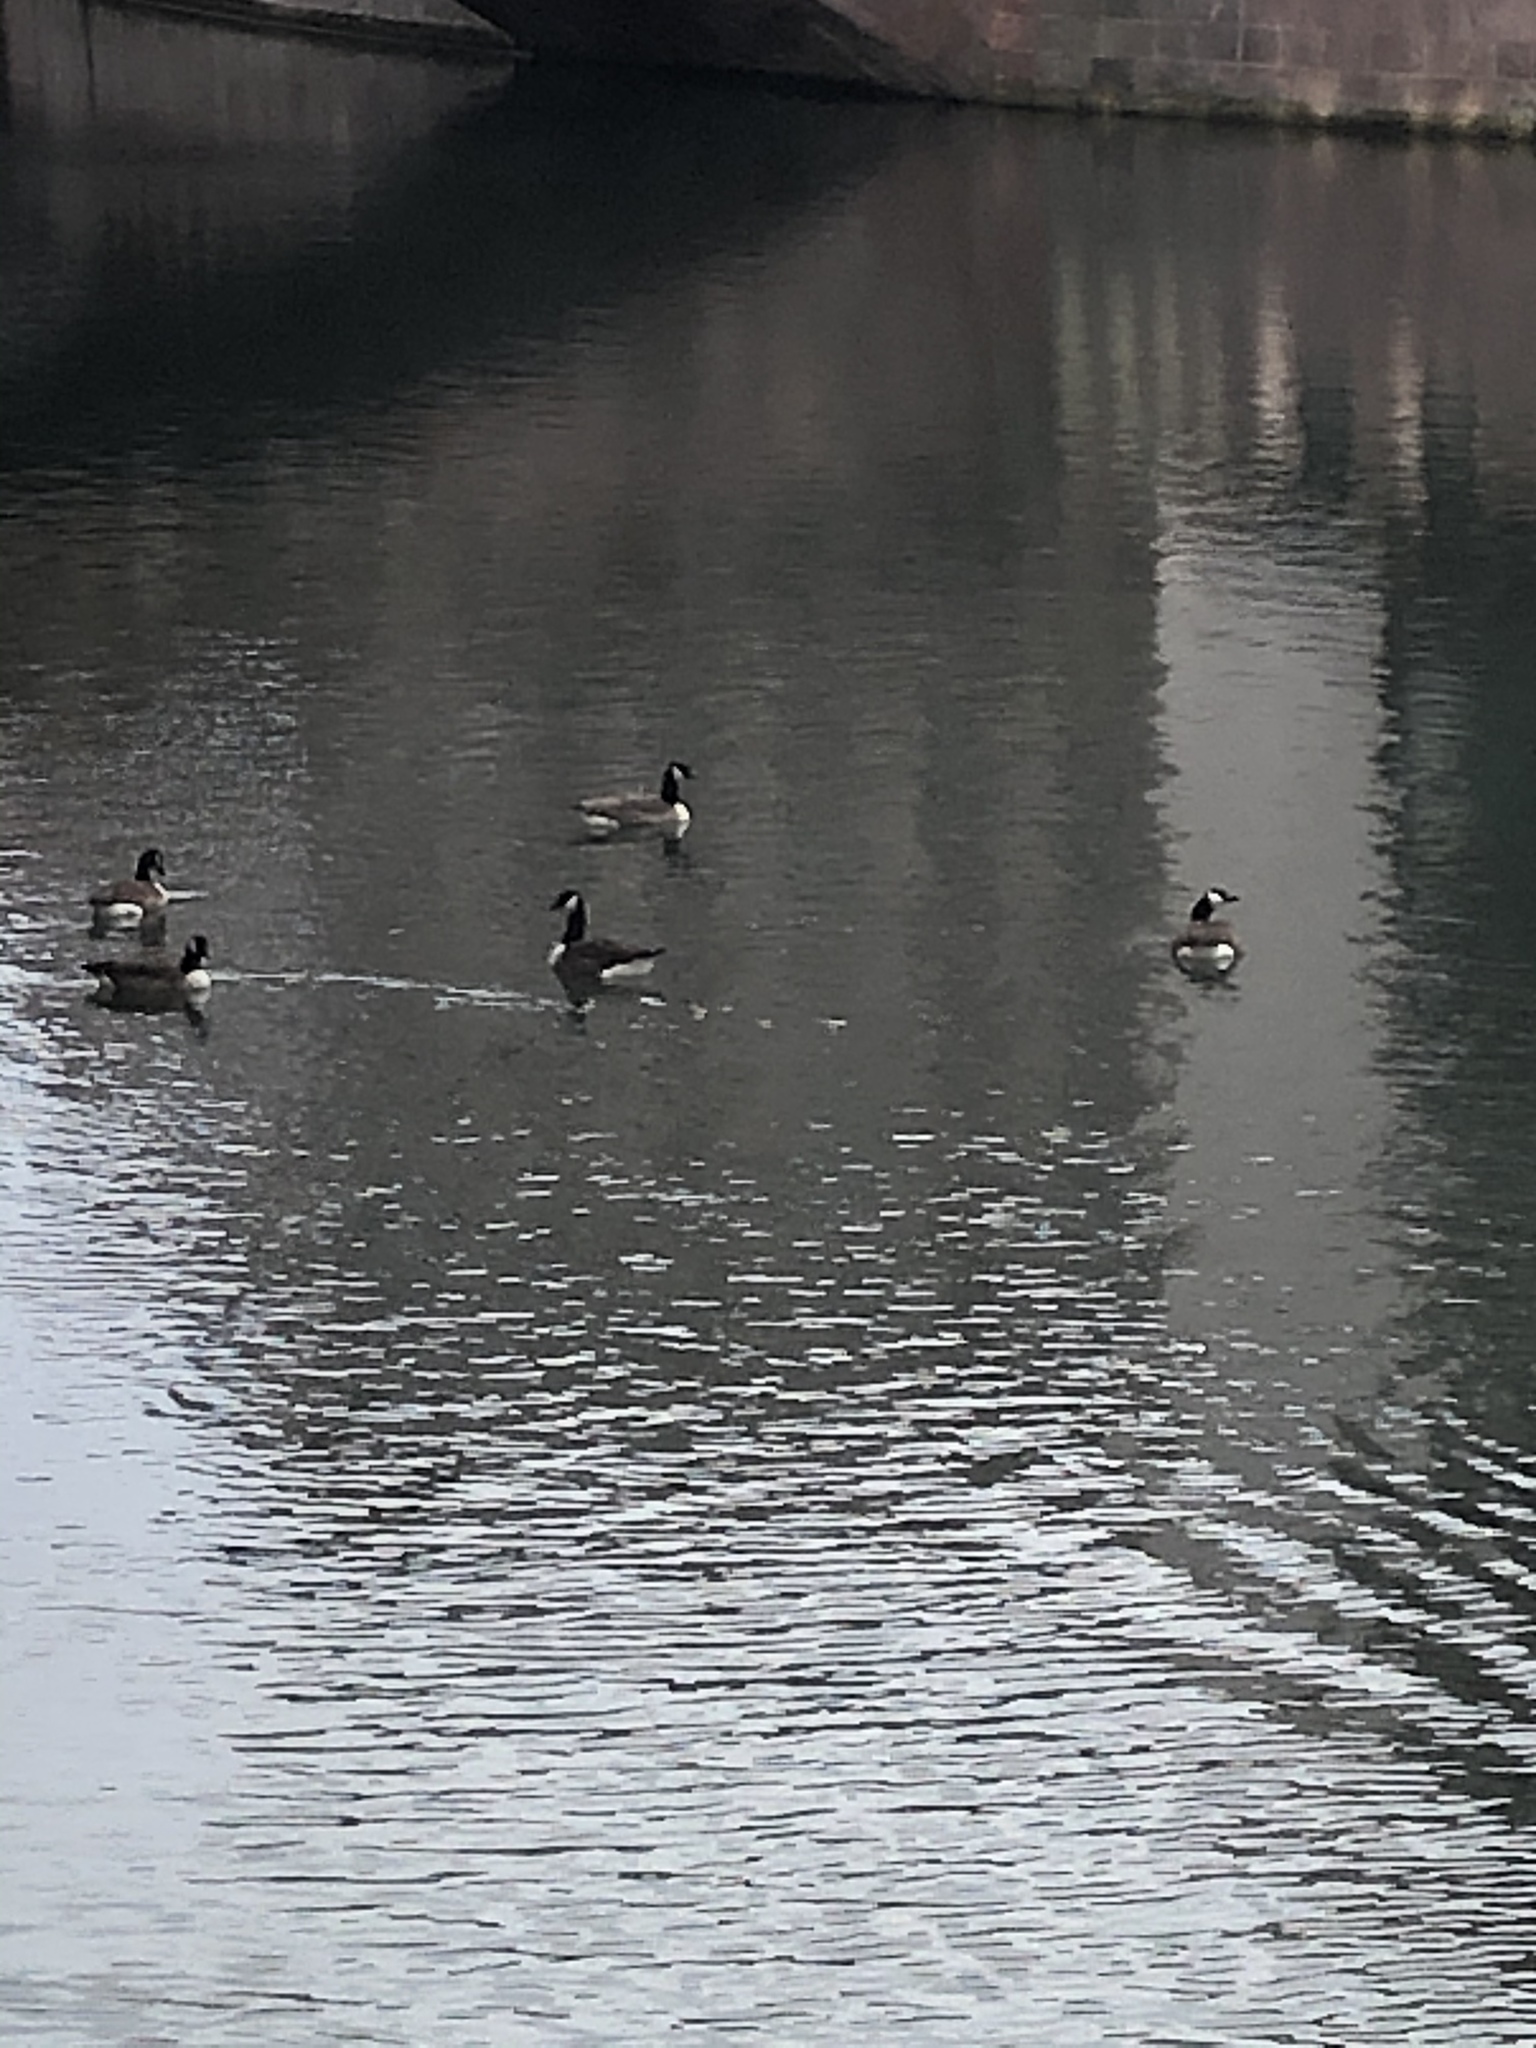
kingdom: Animalia
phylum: Chordata
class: Aves
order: Anseriformes
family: Anatidae
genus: Branta
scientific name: Branta canadensis
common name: Canada goose
